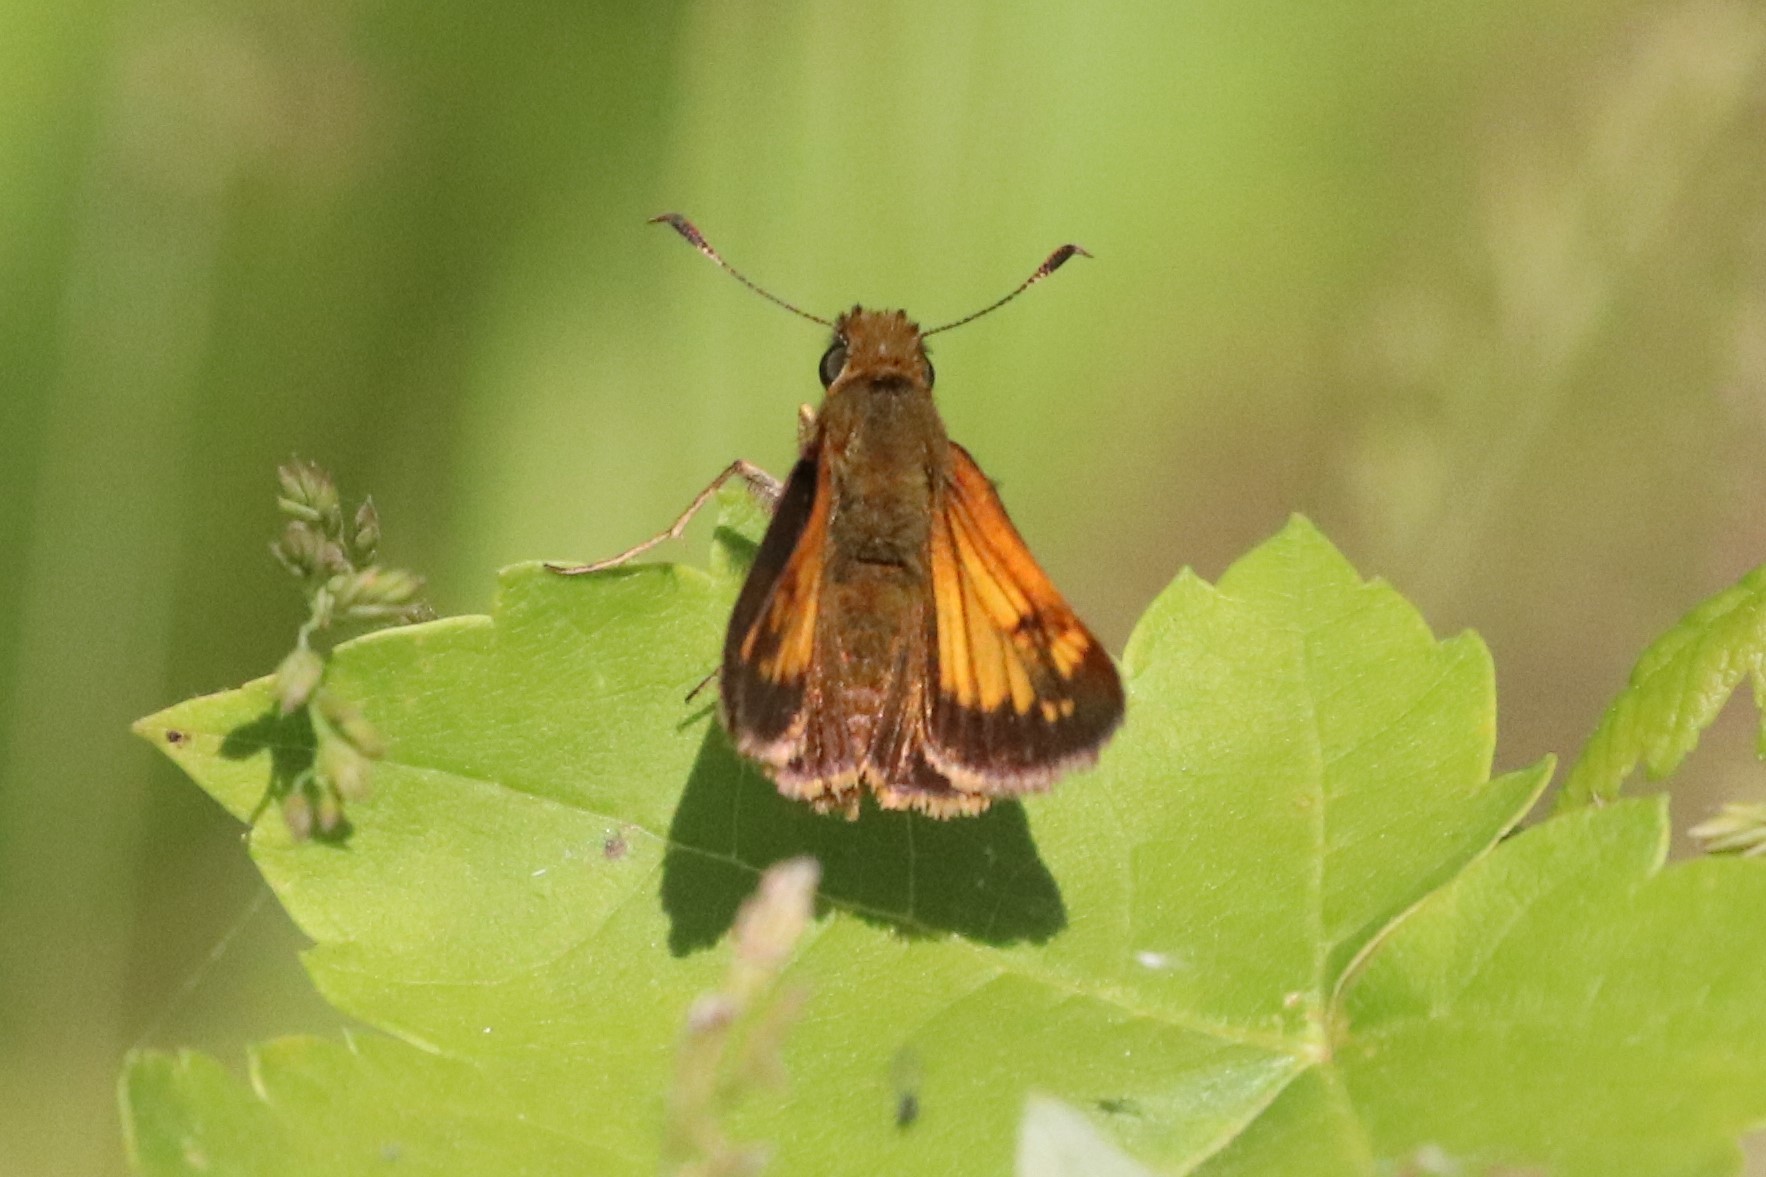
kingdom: Animalia
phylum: Arthropoda
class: Insecta
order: Lepidoptera
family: Hesperiidae
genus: Lon
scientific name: Lon hobomok
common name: Hobomok skipper
